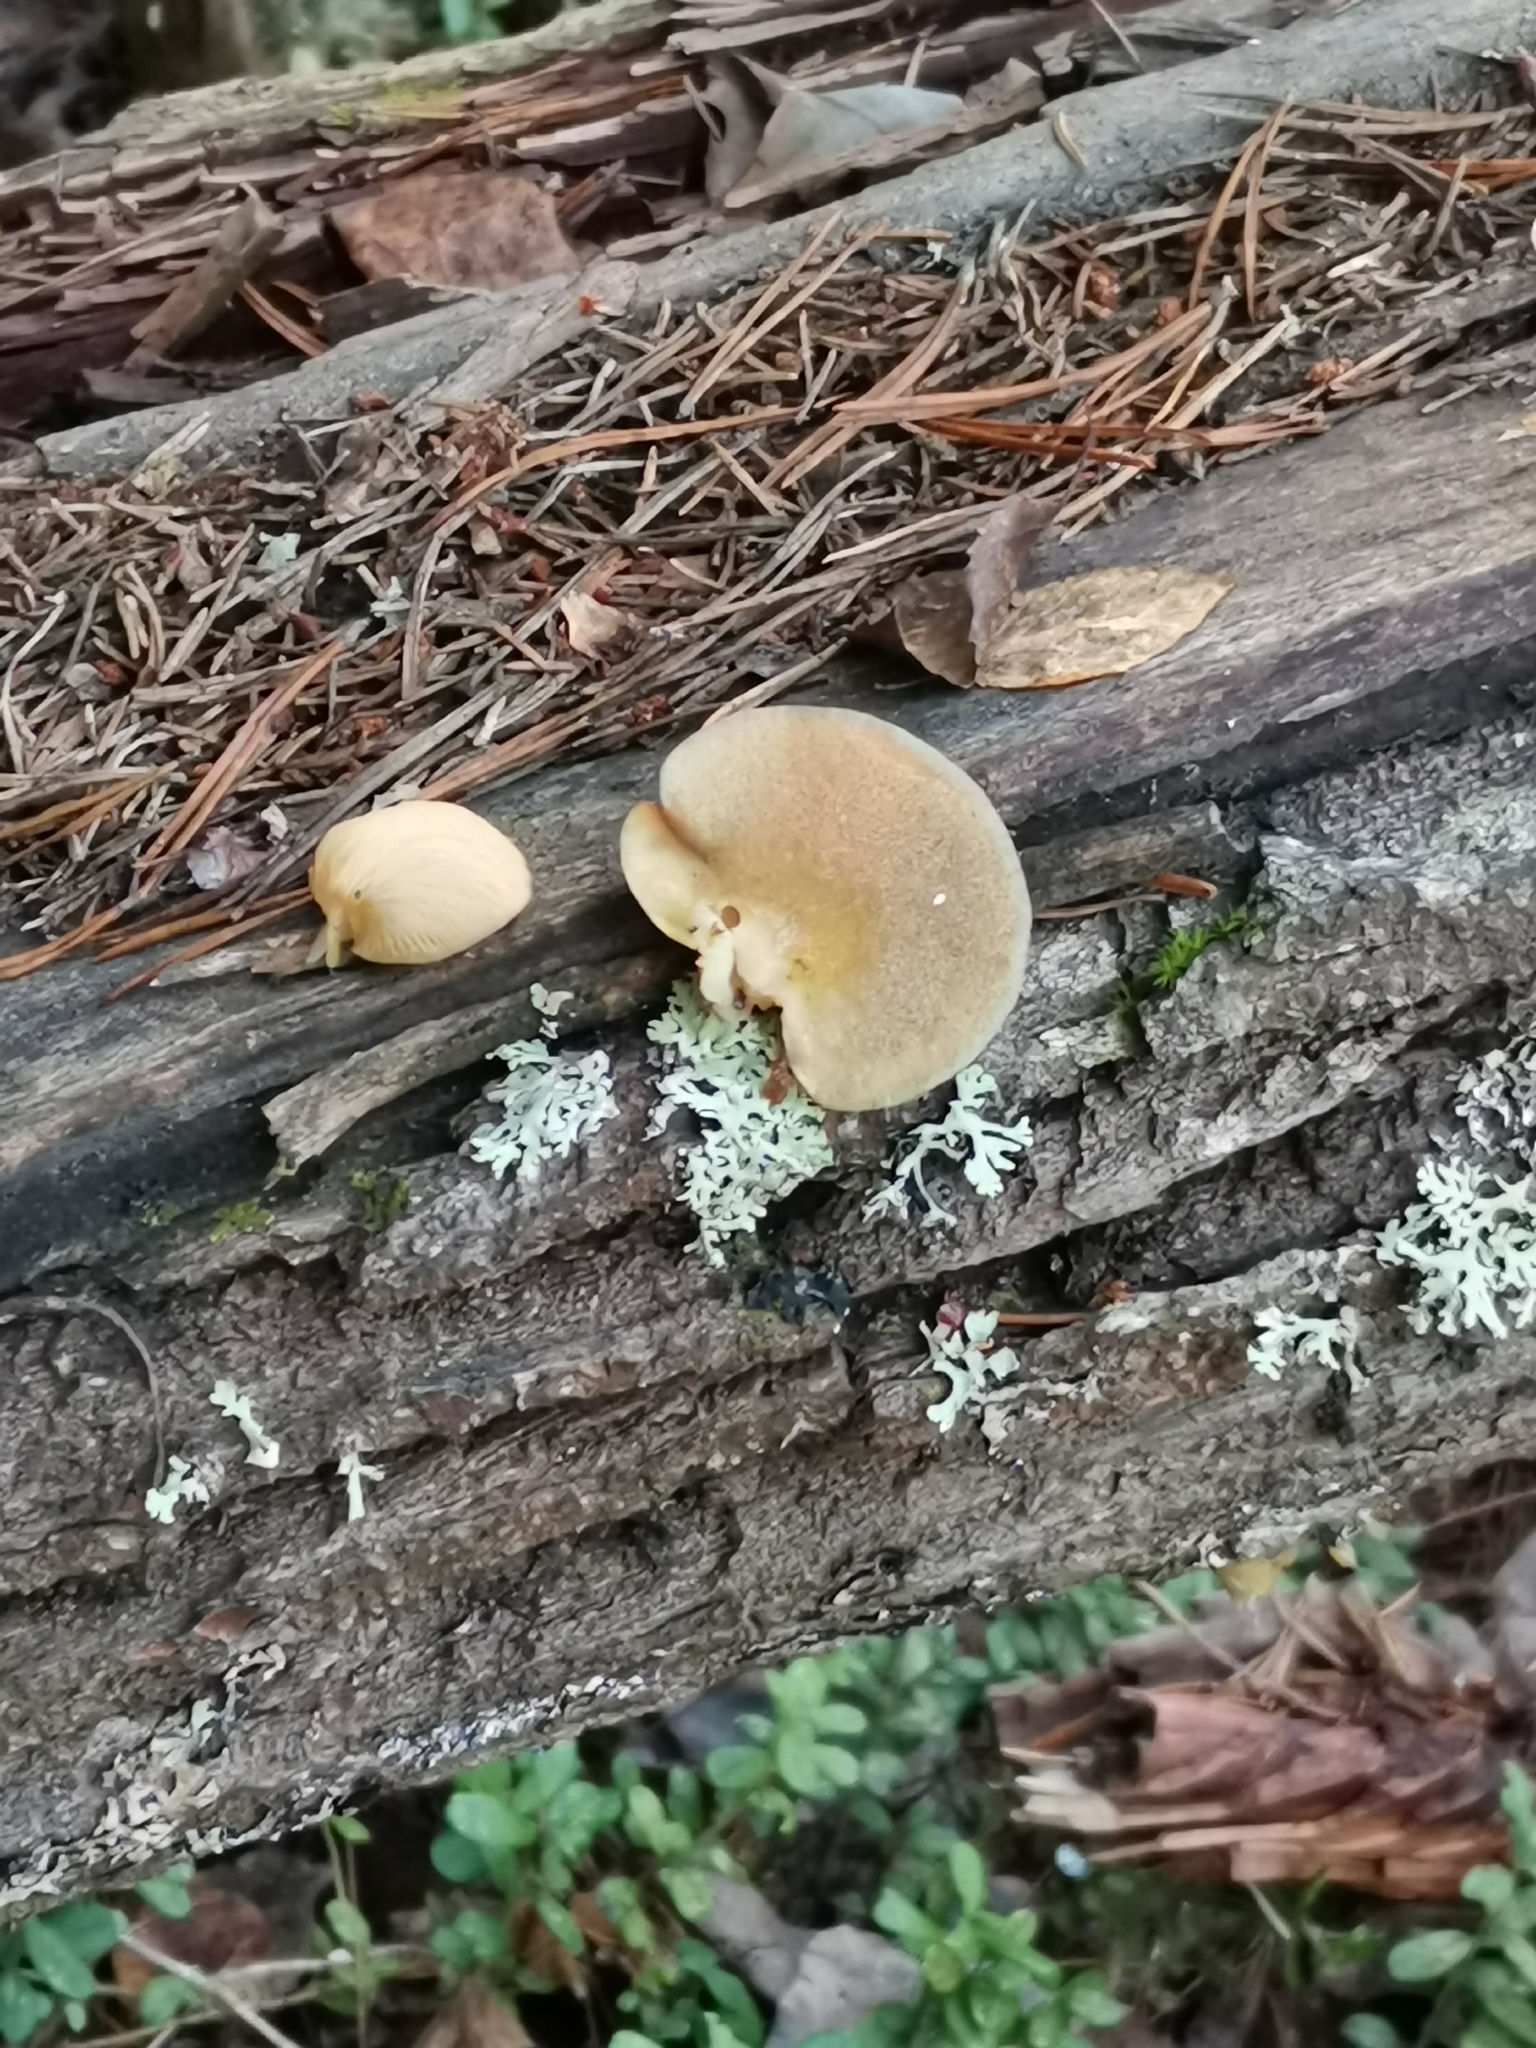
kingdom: Fungi
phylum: Basidiomycota
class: Agaricomycetes
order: Agaricales
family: Sarcomyxaceae
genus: Sarcomyxa
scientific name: Sarcomyxa serotina
